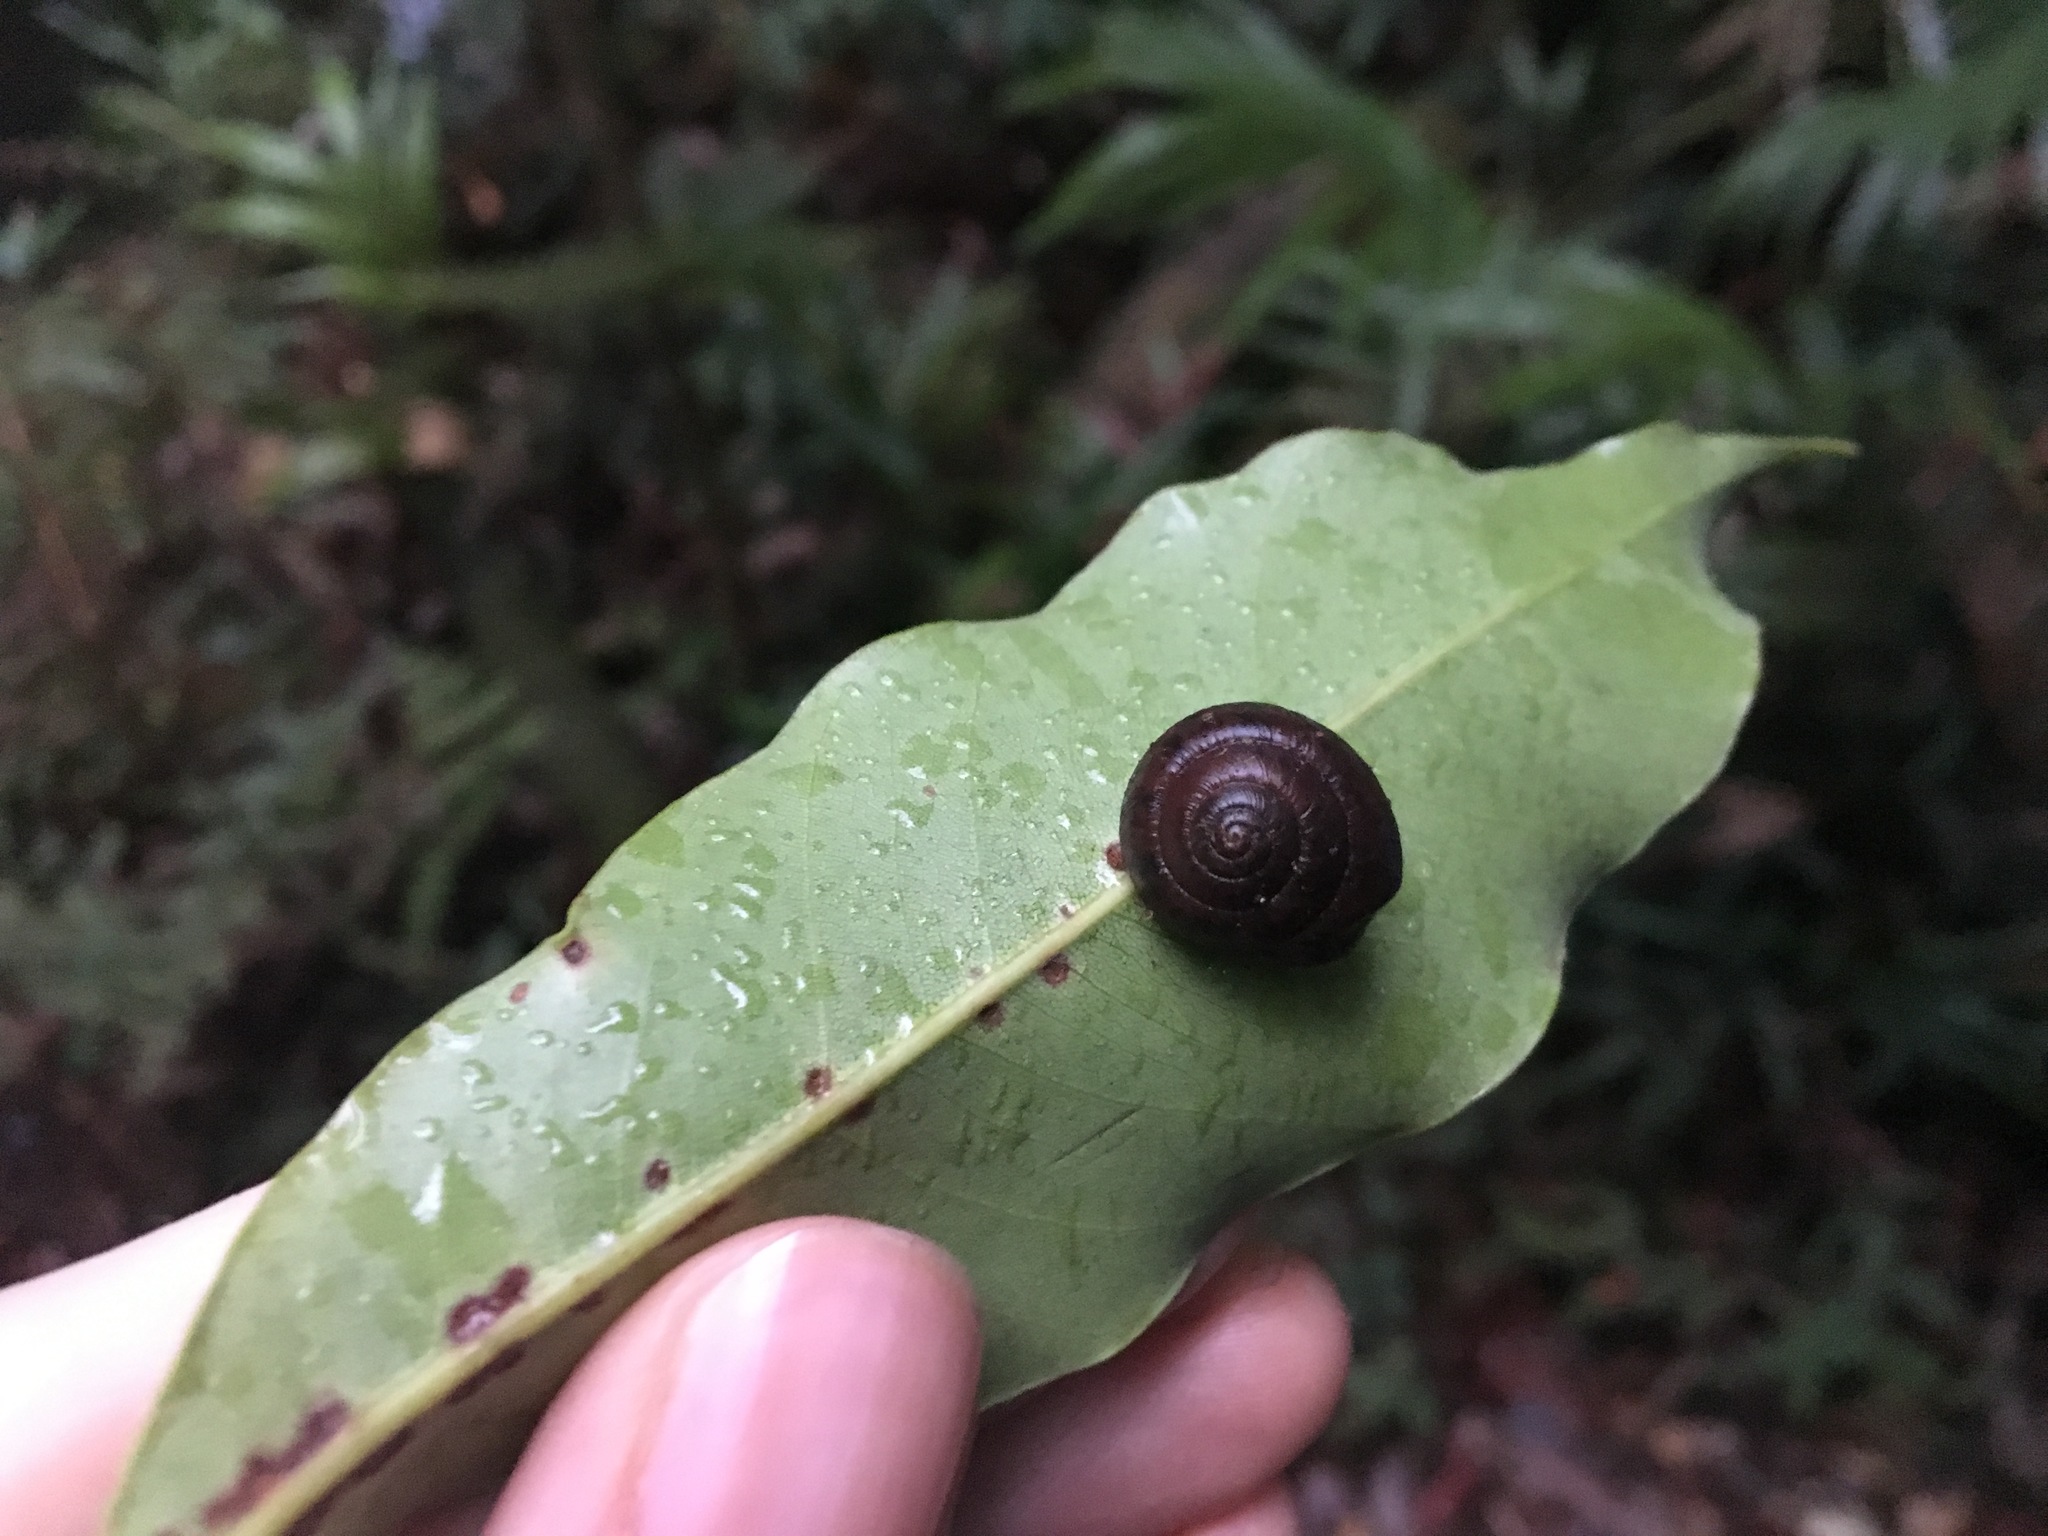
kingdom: Animalia
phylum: Mollusca
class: Gastropoda
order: Stylommatophora
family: Camaenidae
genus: Ventopelita
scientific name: Ventopelita leucocheilus
